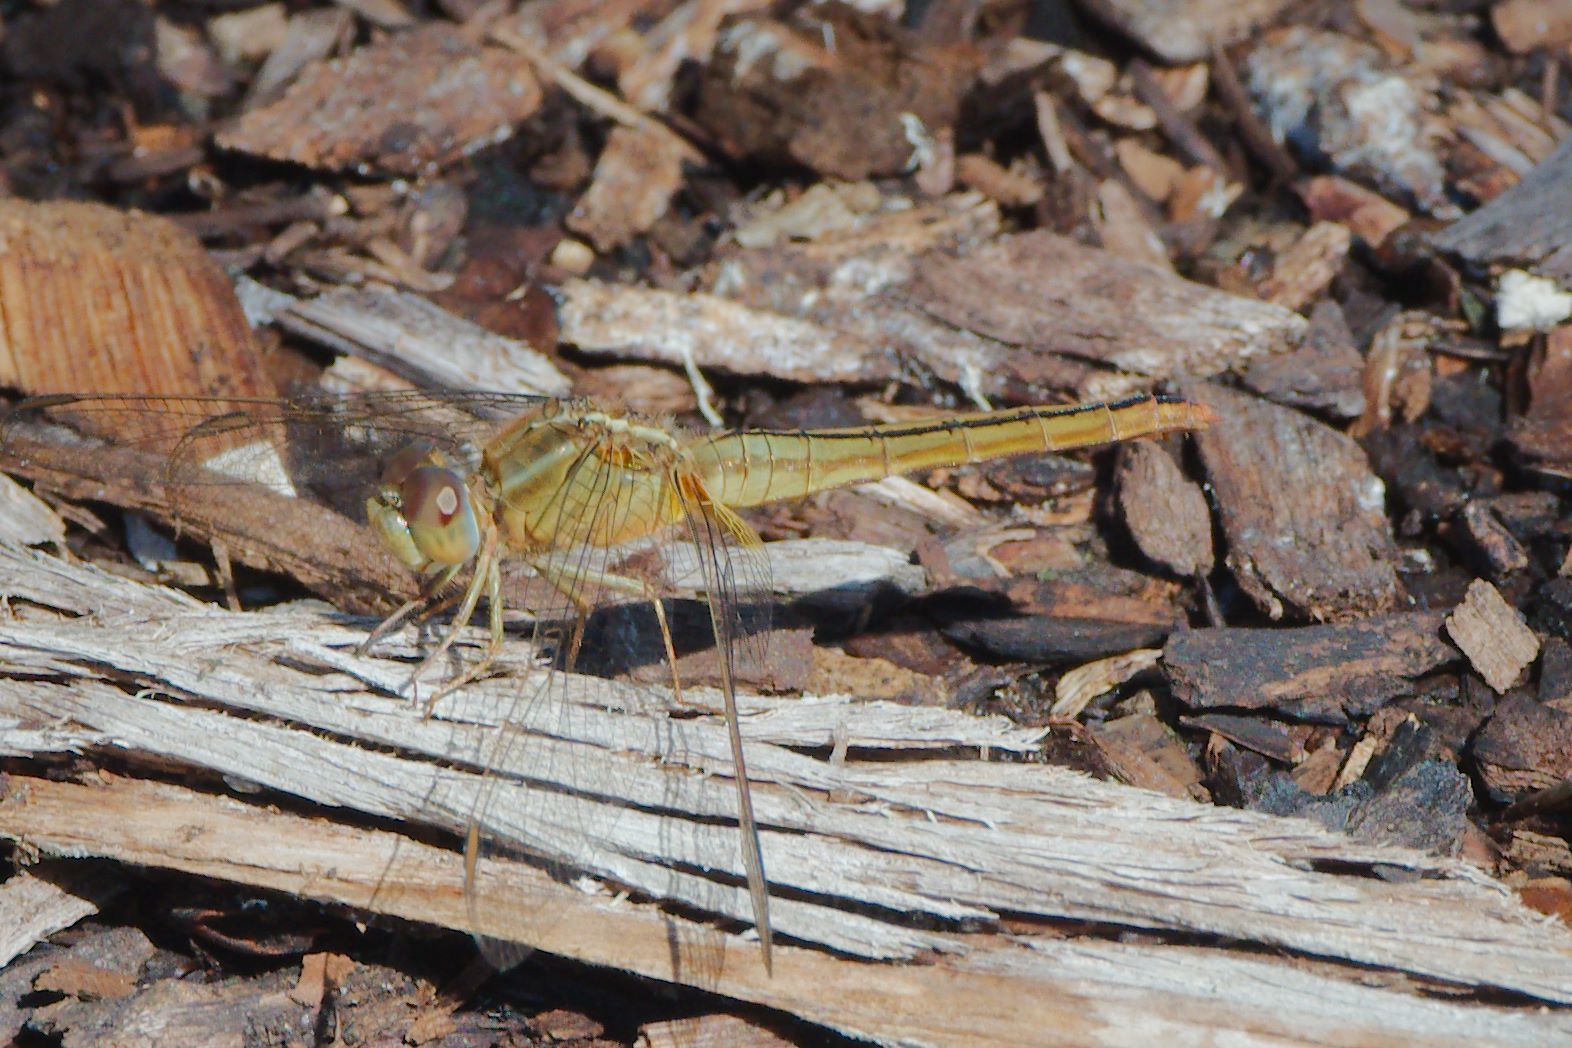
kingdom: Animalia
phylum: Arthropoda
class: Insecta
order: Odonata
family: Libellulidae
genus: Crocothemis
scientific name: Crocothemis servilia
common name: Scarlet skimmer
